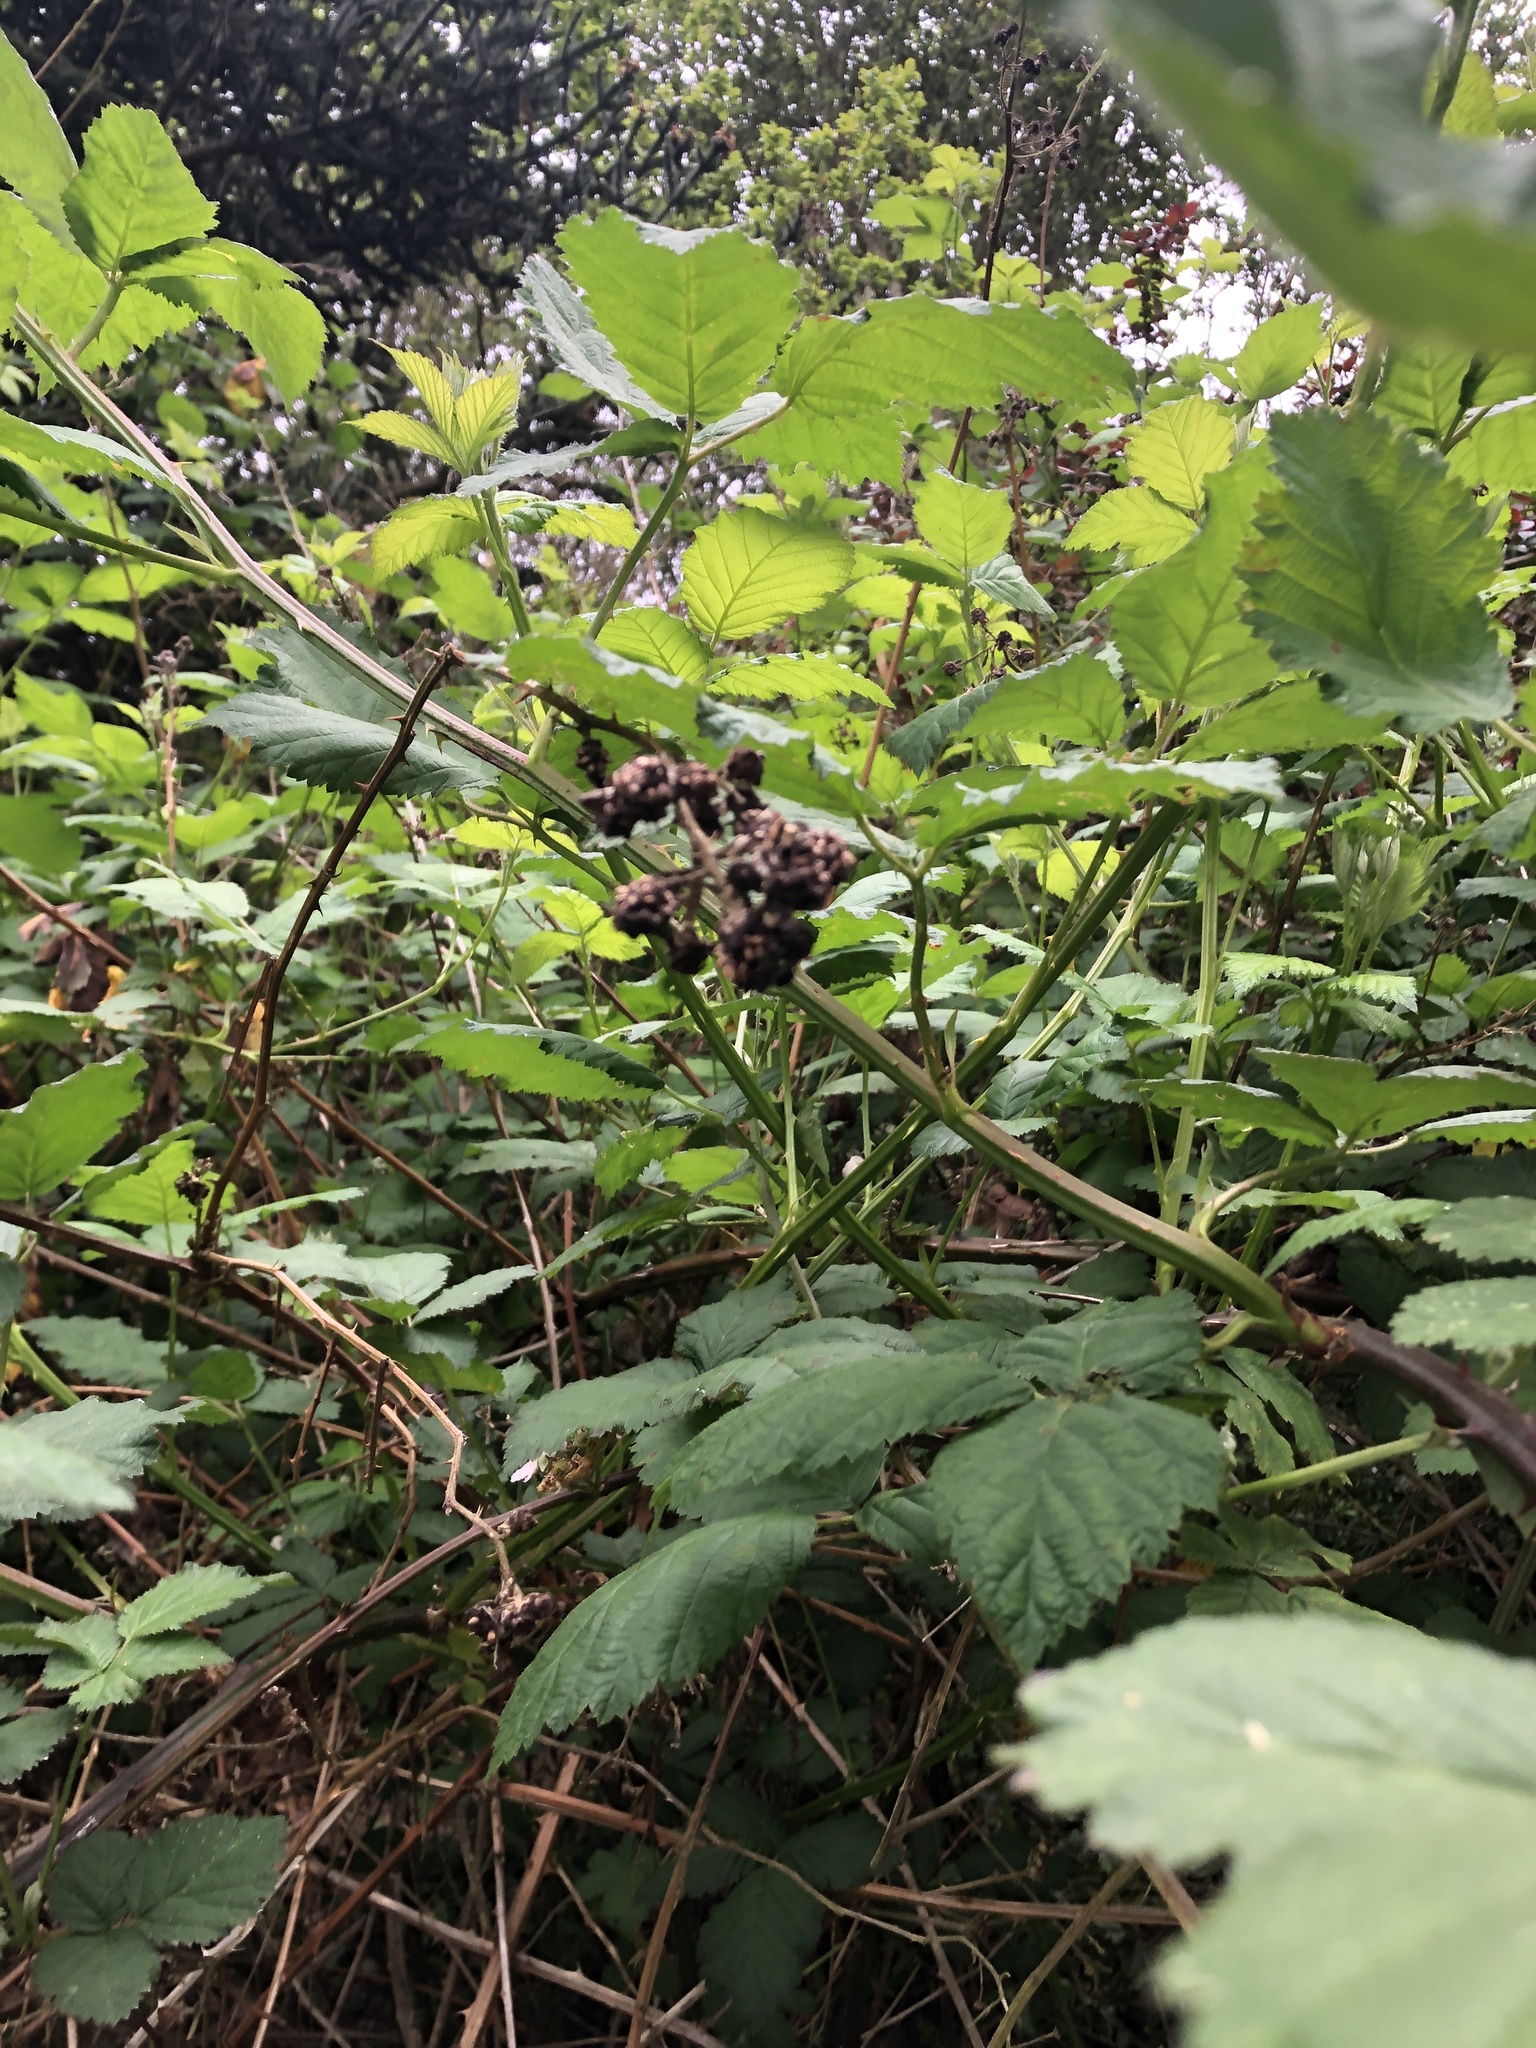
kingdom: Plantae
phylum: Tracheophyta
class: Magnoliopsida
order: Rosales
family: Rosaceae
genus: Rubus
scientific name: Rubus bifrons
